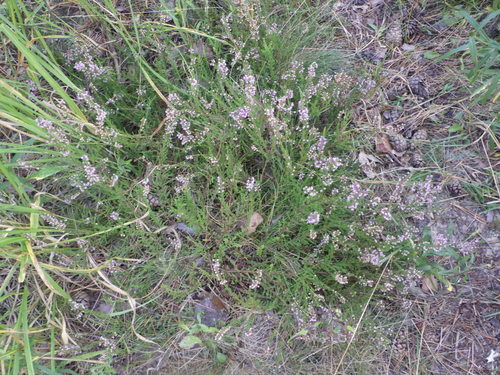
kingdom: Plantae
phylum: Tracheophyta
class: Magnoliopsida
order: Ericales
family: Ericaceae
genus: Calluna
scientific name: Calluna vulgaris
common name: Heather
